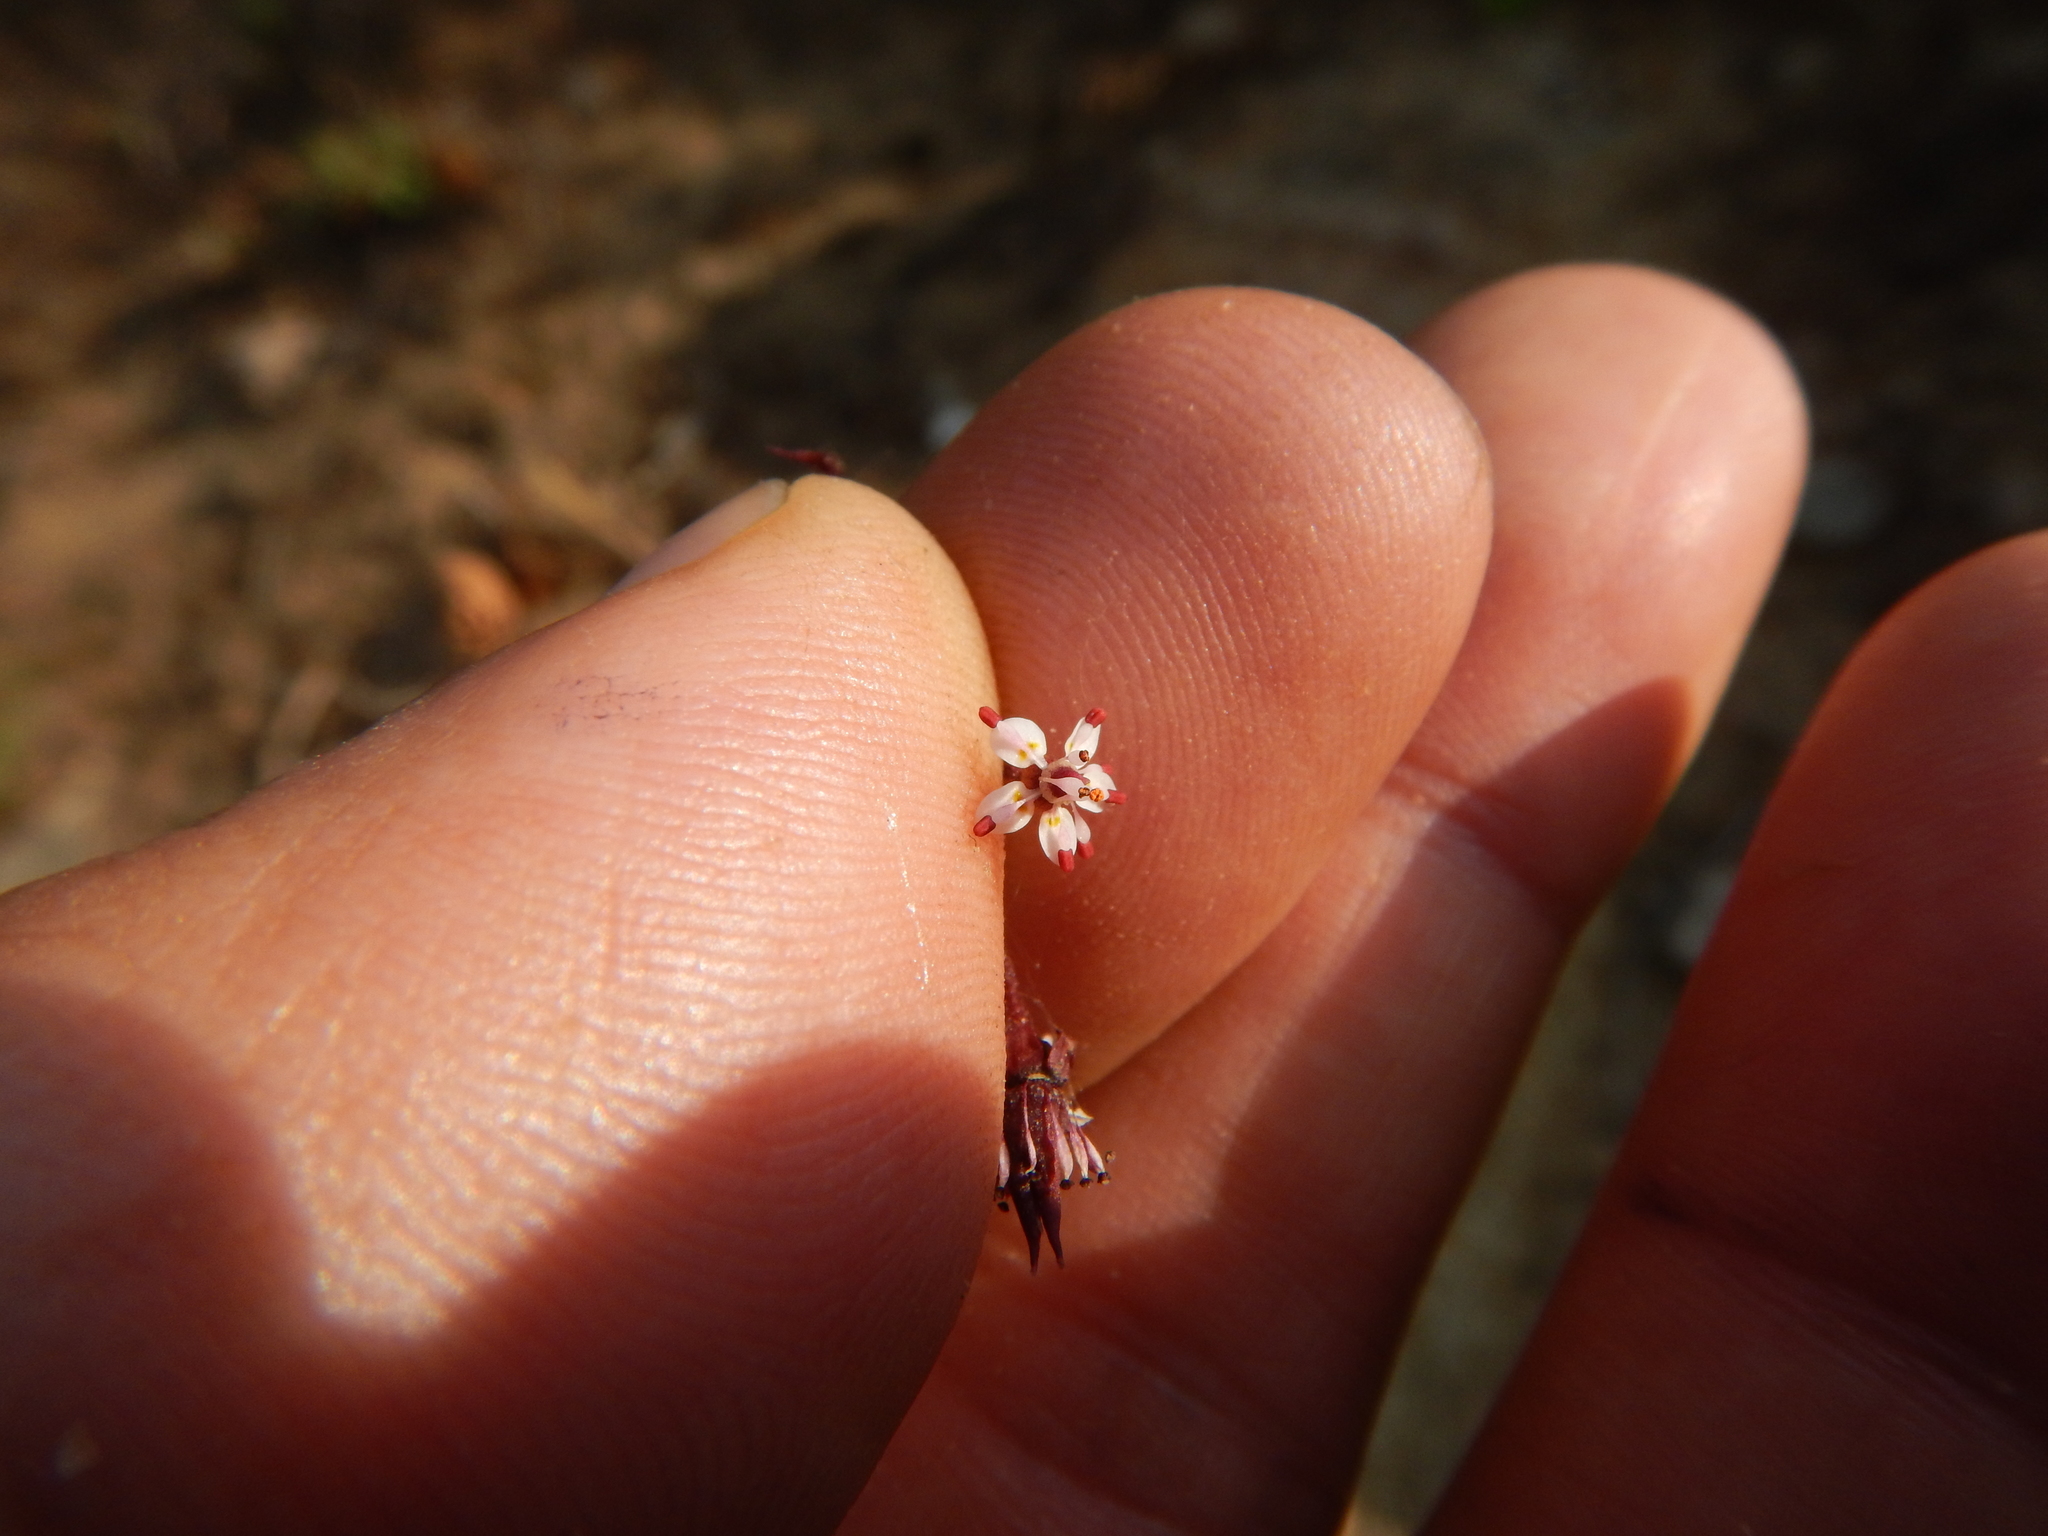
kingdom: Plantae
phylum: Tracheophyta
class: Magnoliopsida
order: Saxifragales
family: Saxifragaceae
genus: Micranthes
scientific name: Micranthes odontoloma
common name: Brook saxifrage
